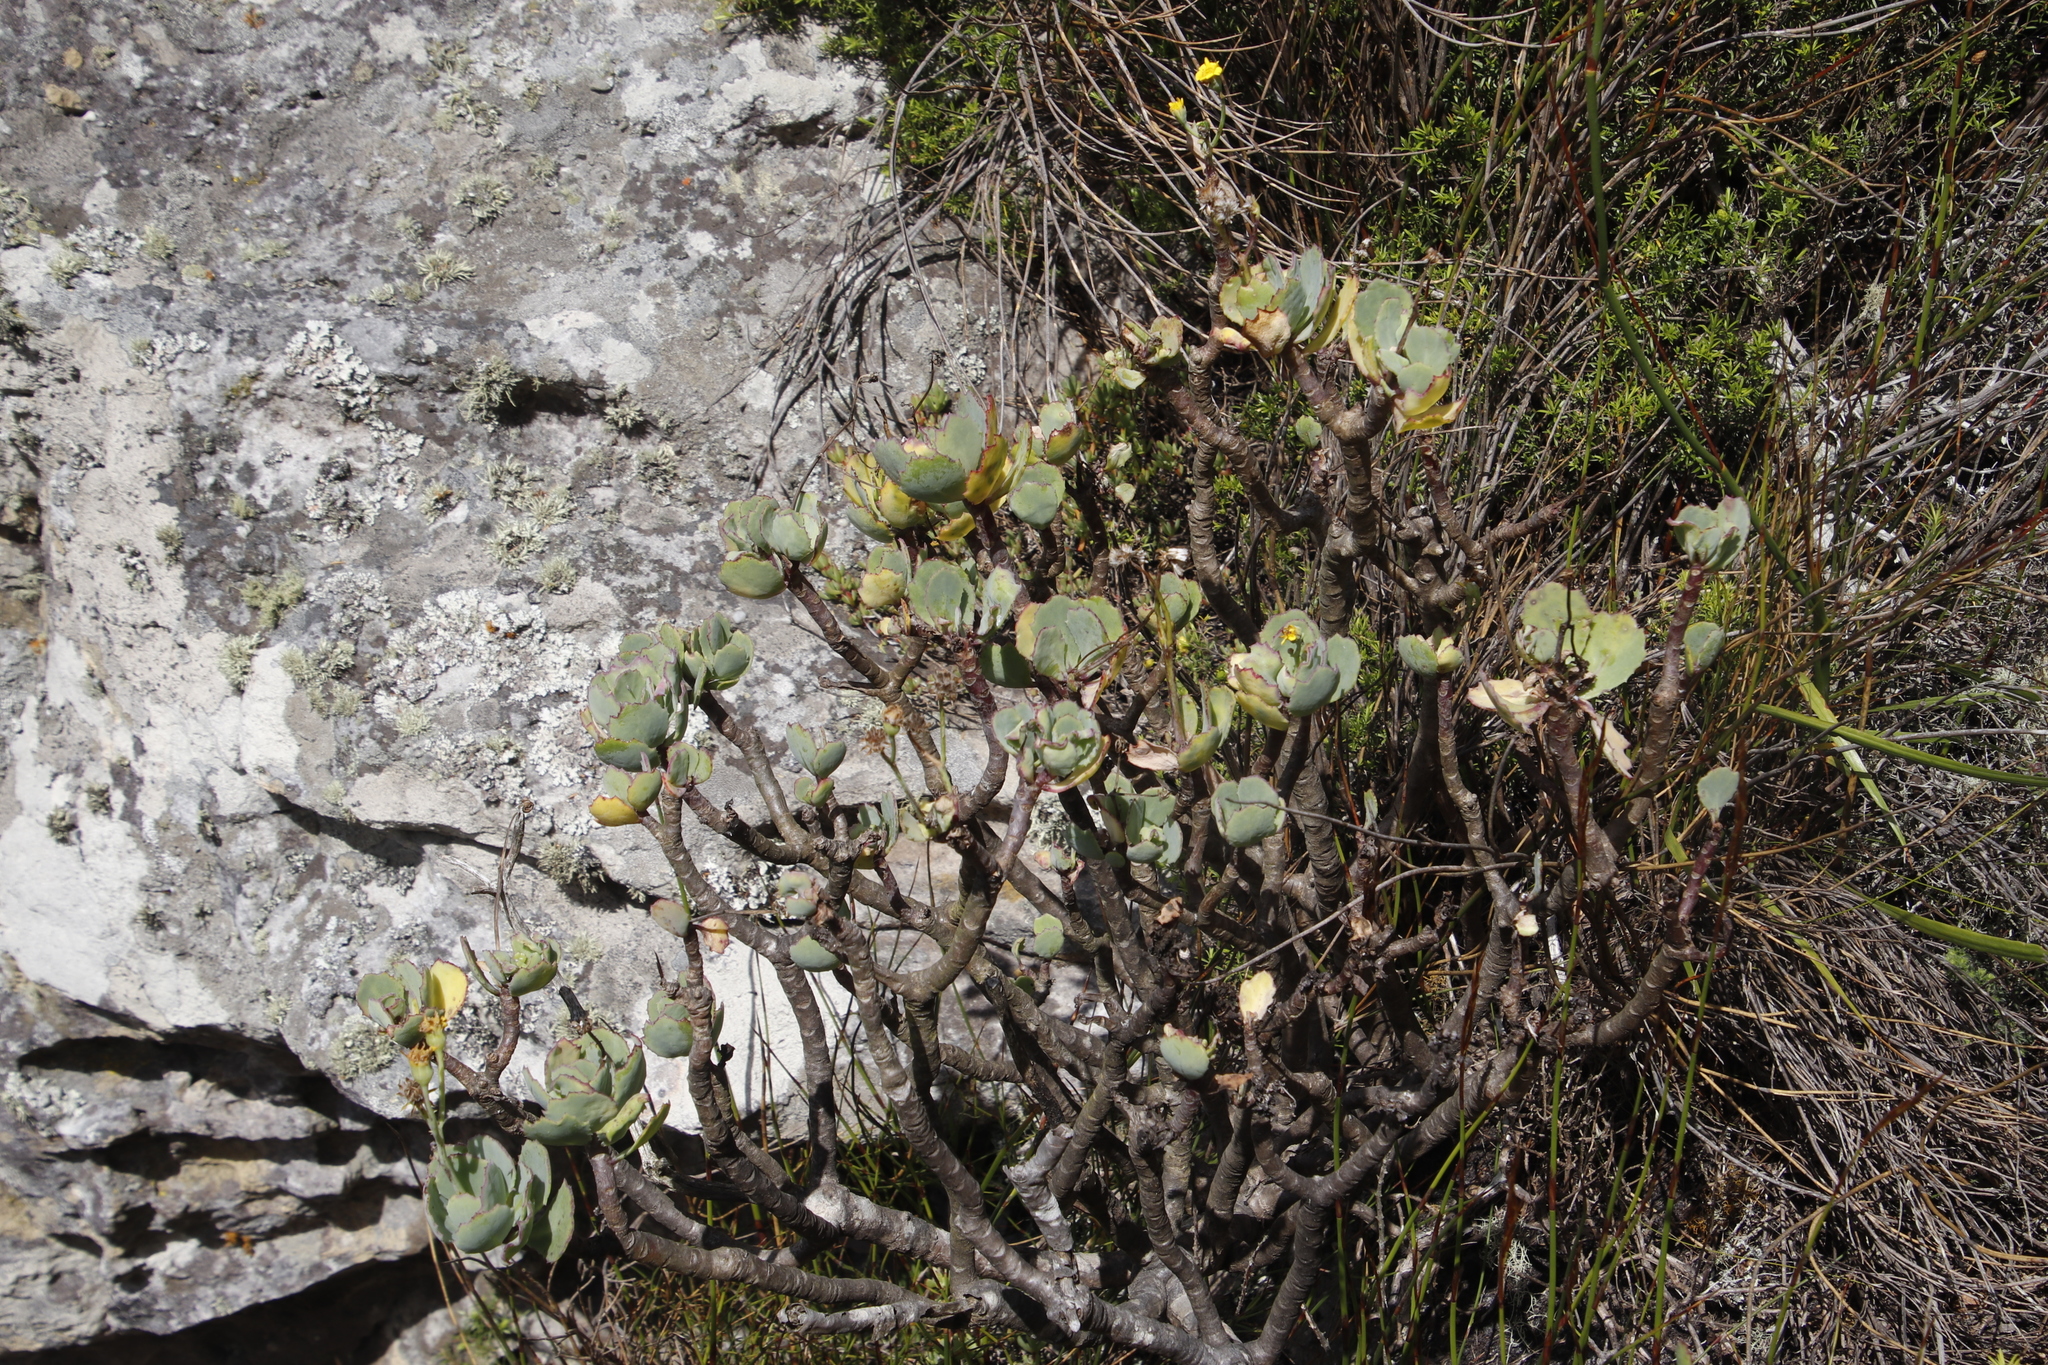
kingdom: Plantae
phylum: Tracheophyta
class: Magnoliopsida
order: Asterales
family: Asteraceae
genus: Othonna
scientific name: Othonna dentata
